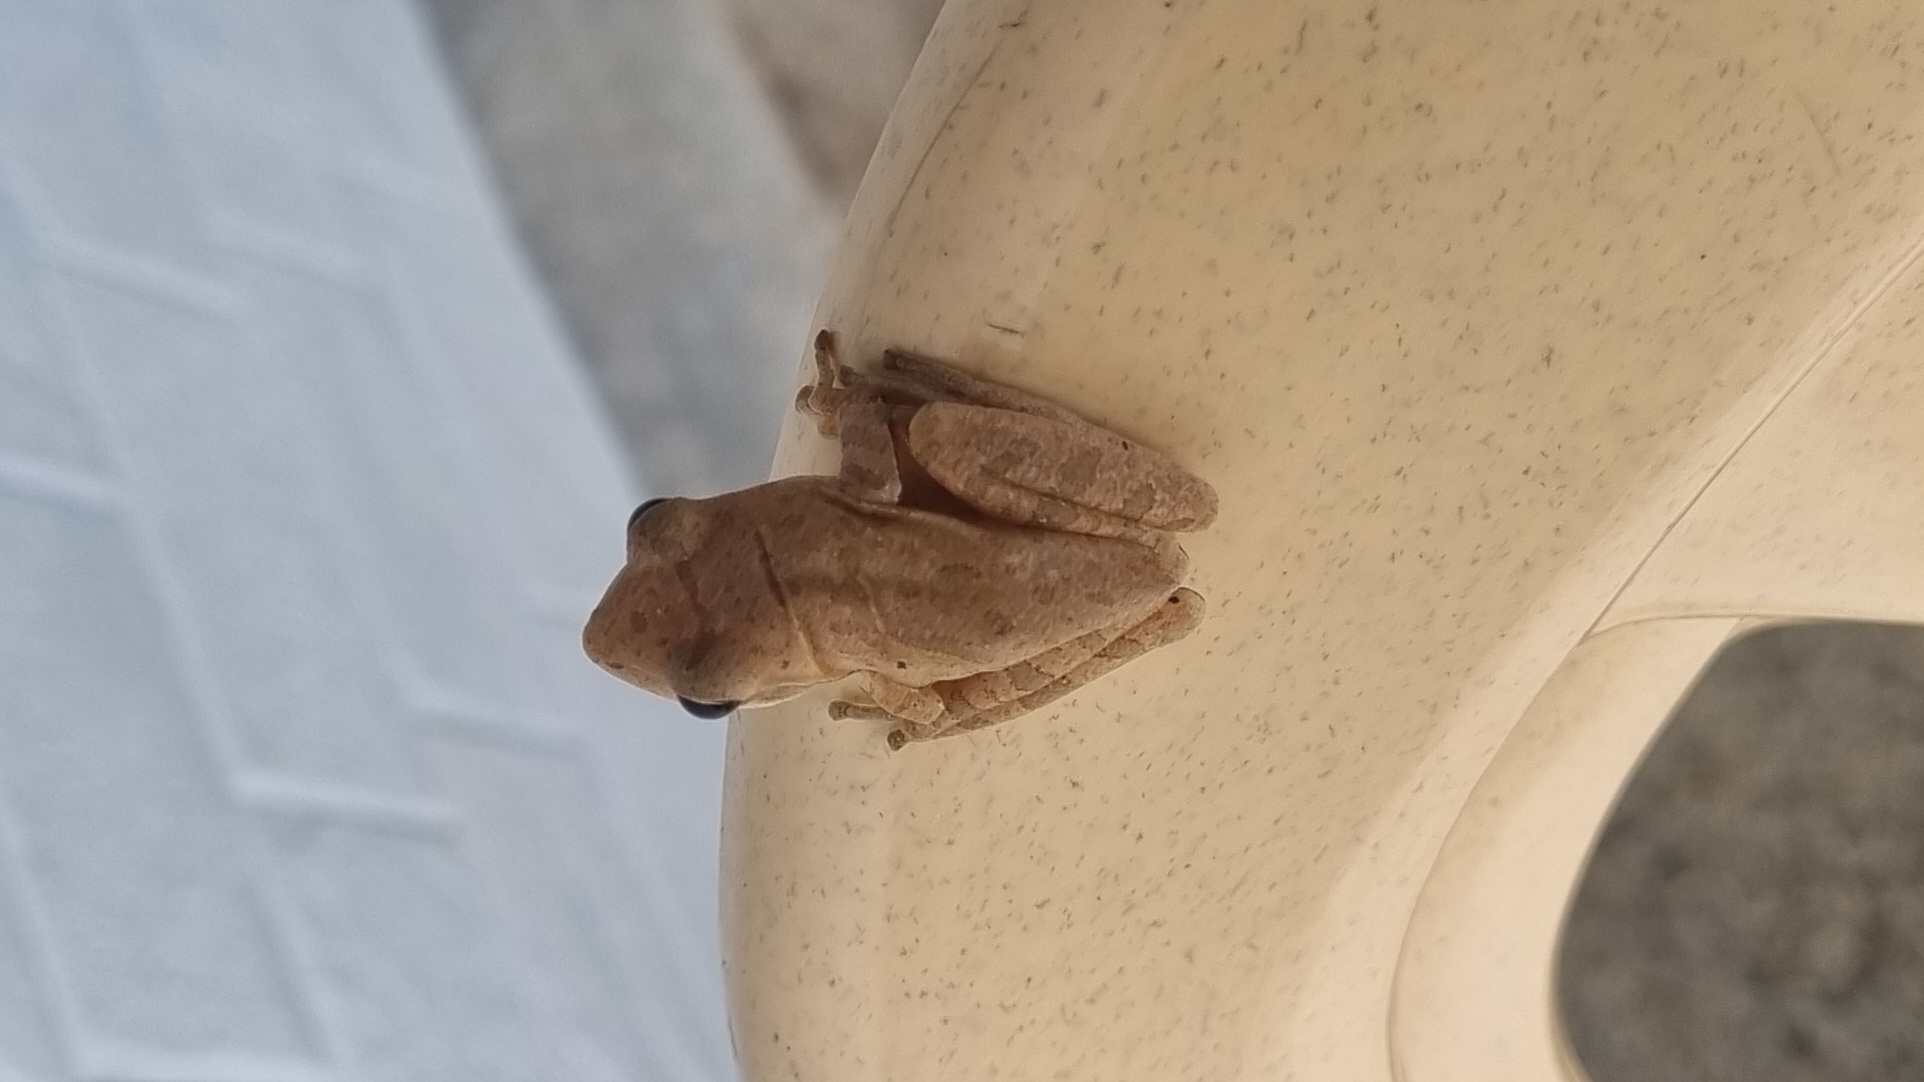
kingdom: Animalia
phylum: Chordata
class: Amphibia
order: Anura
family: Rhacophoridae
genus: Polypedates
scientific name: Polypedates maculatus
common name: Himalayan tree frog
